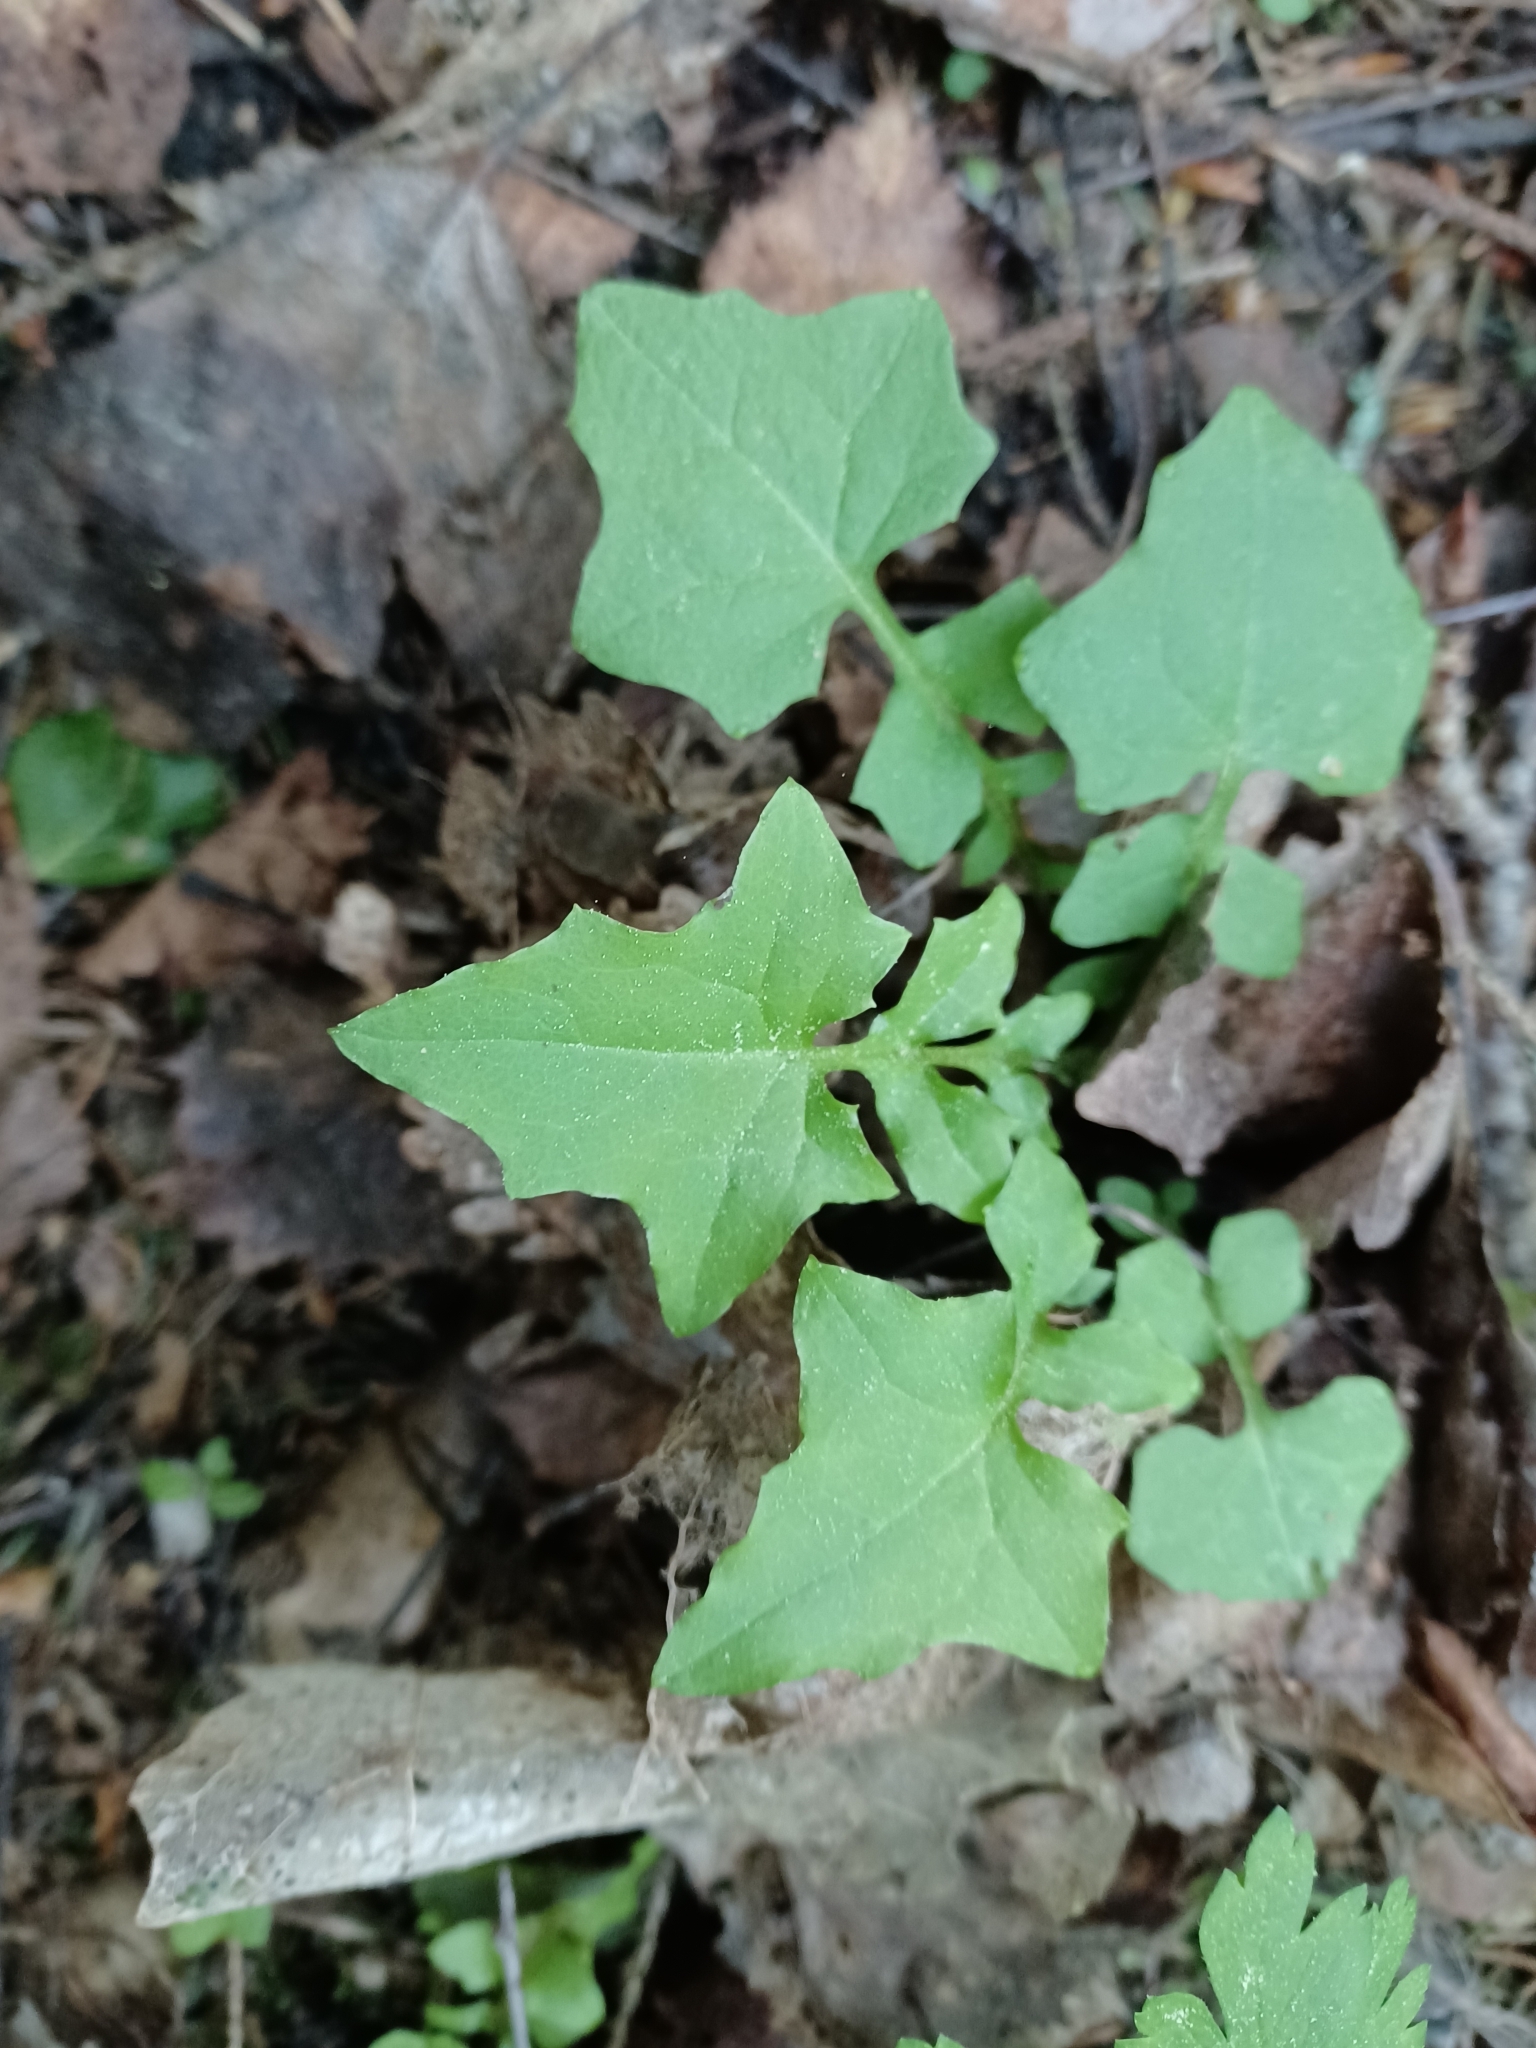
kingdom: Plantae
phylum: Tracheophyta
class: Magnoliopsida
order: Asterales
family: Asteraceae
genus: Mycelis
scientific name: Mycelis muralis
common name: Wall lettuce
